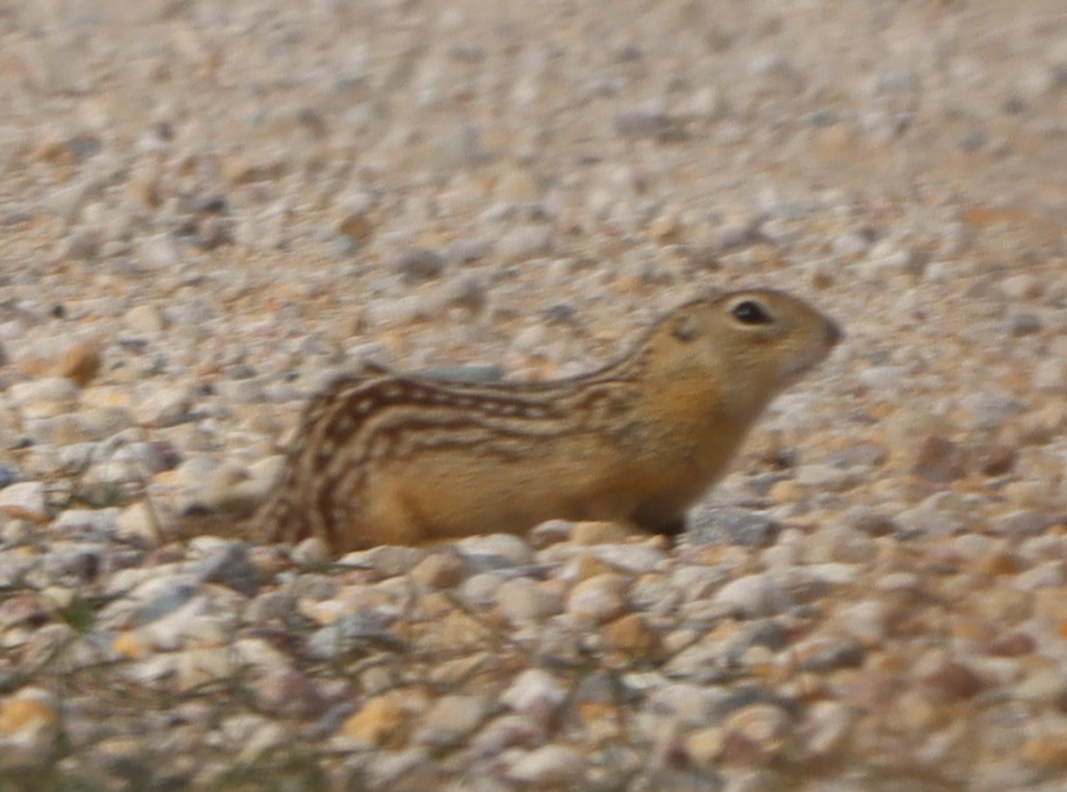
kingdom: Animalia
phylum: Chordata
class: Mammalia
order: Rodentia
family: Sciuridae
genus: Ictidomys
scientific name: Ictidomys tridecemlineatus
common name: Thirteen-lined ground squirrel
